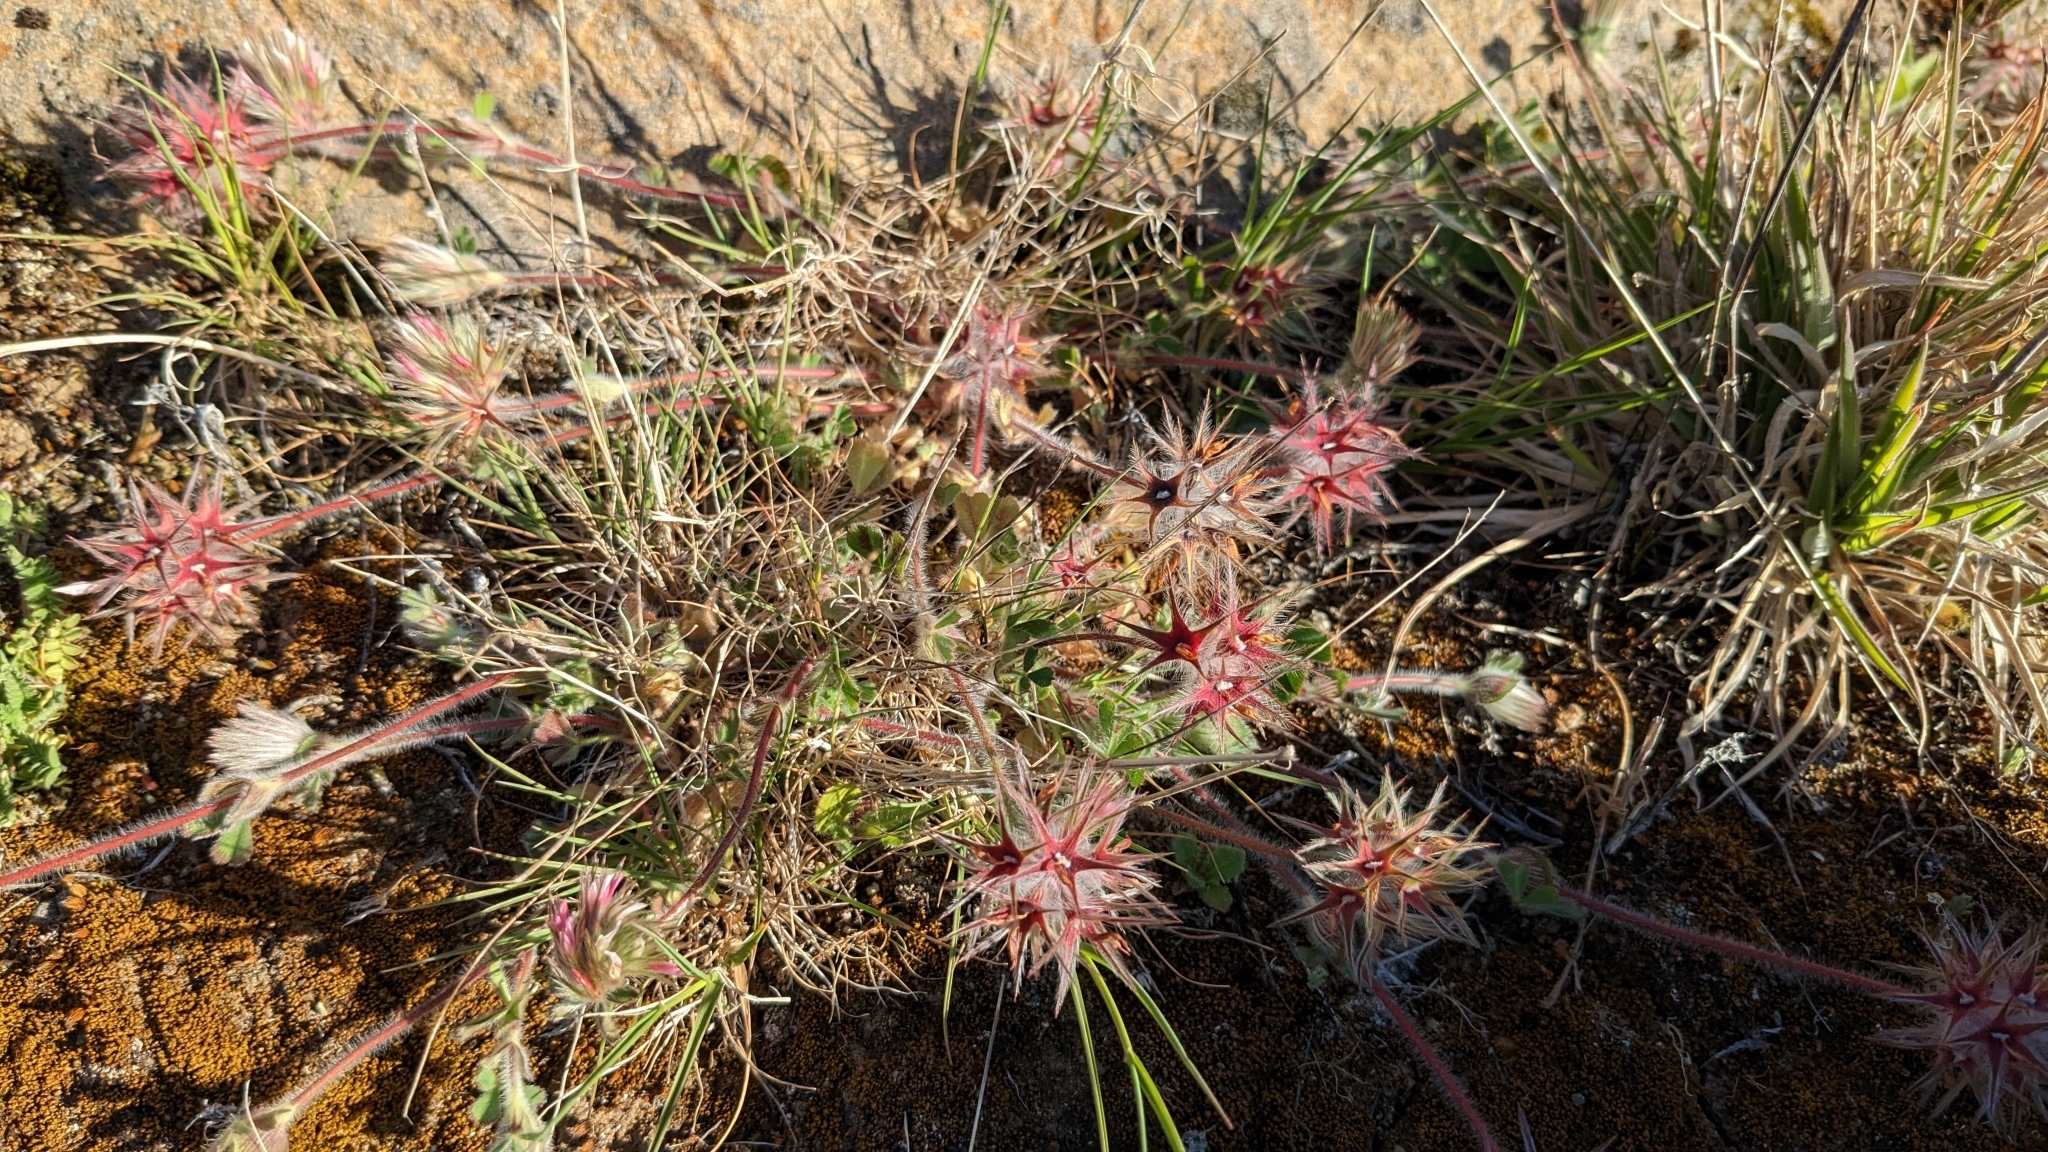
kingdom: Plantae
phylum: Tracheophyta
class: Magnoliopsida
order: Fabales
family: Fabaceae
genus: Trifolium
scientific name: Trifolium stellatum
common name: Starry clover
